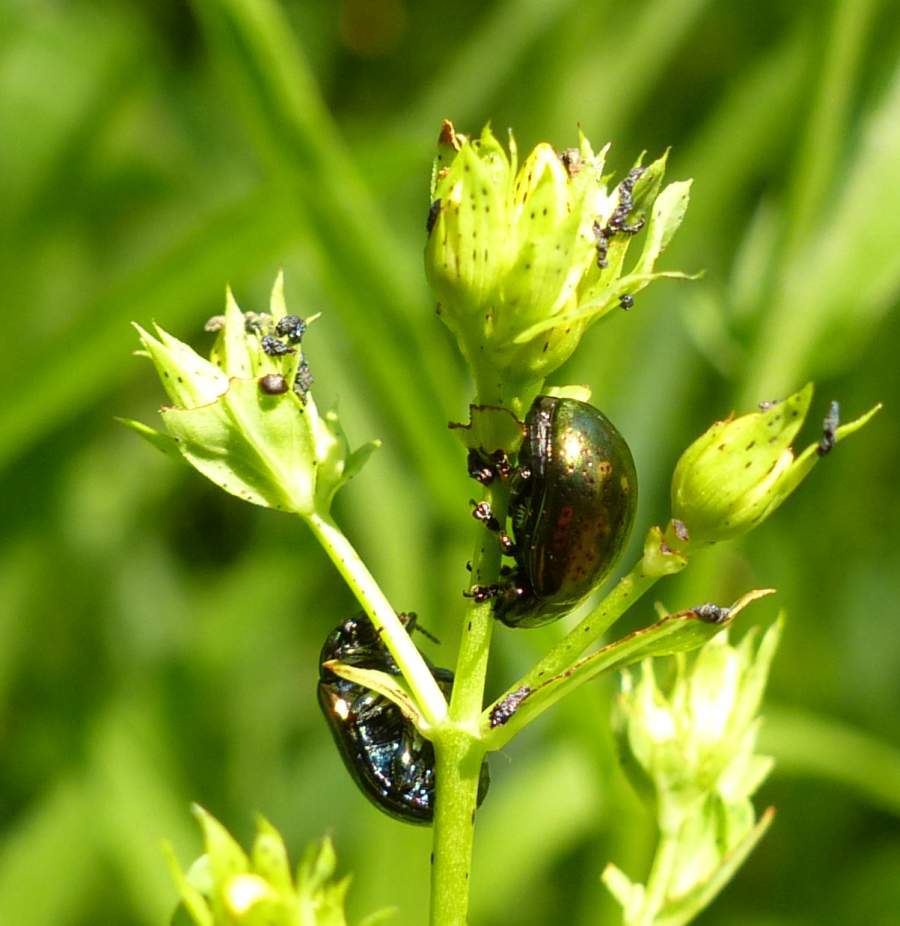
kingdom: Animalia
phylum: Arthropoda
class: Insecta
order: Coleoptera
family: Chrysomelidae
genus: Chrysolina
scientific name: Chrysolina hyperici
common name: St. johnswort beetle
